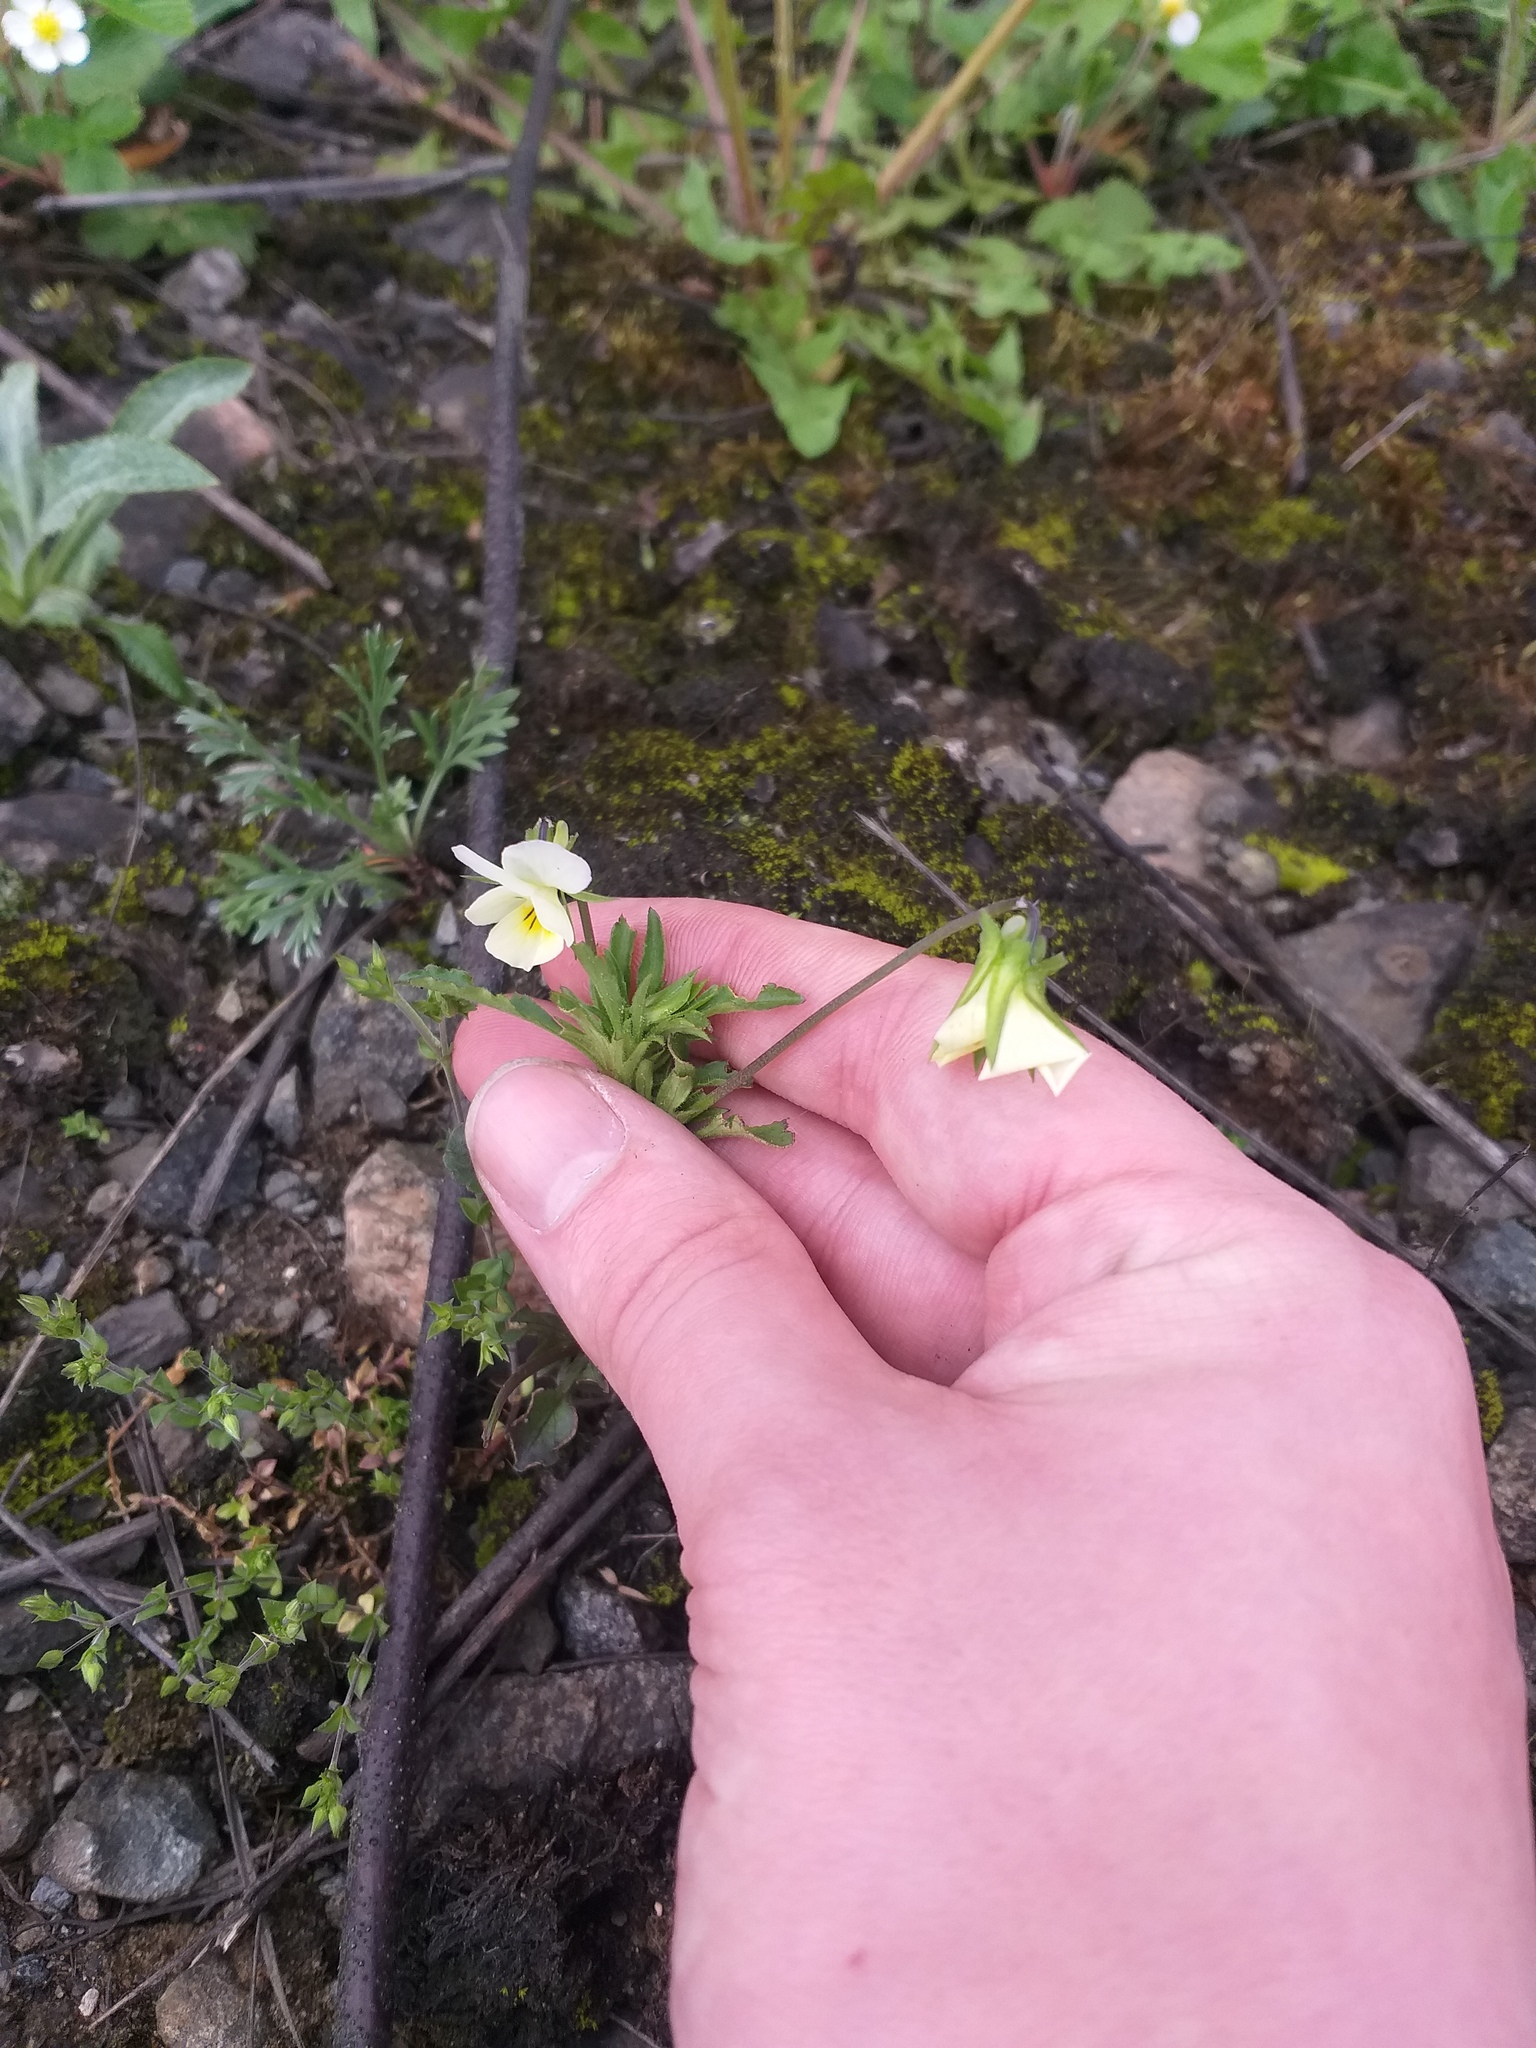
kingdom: Plantae
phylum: Tracheophyta
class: Magnoliopsida
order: Malpighiales
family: Violaceae
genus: Viola
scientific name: Viola arvensis
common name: Field pansy
